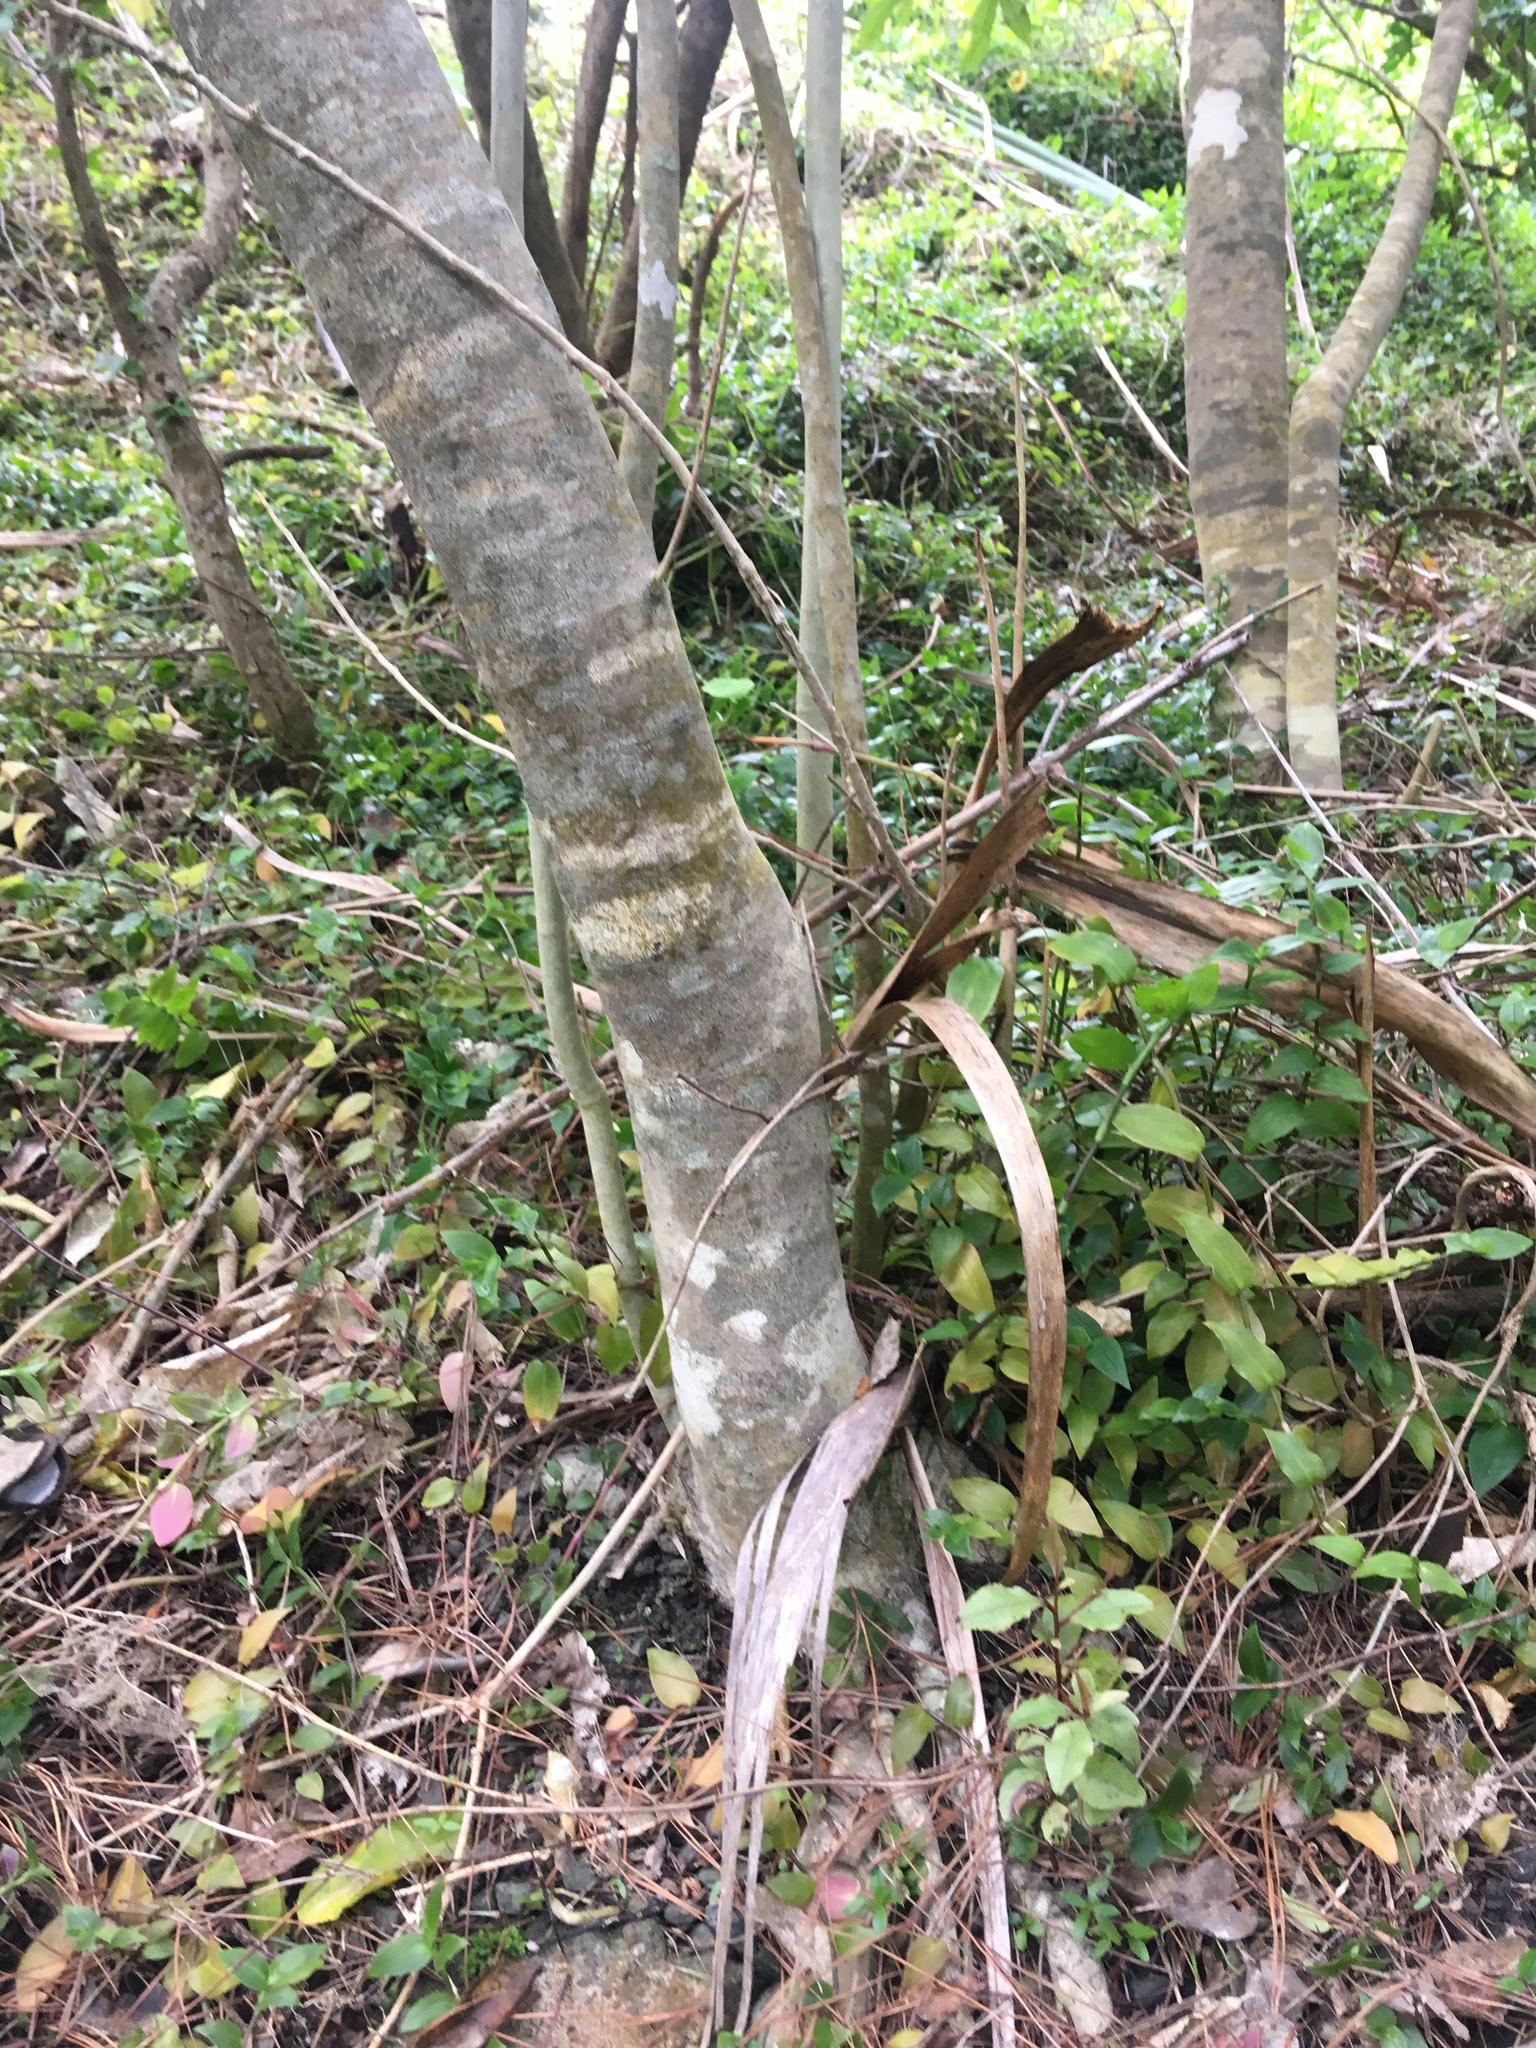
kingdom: Plantae
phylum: Tracheophyta
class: Liliopsida
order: Commelinales
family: Commelinaceae
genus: Tradescantia
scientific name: Tradescantia fluminensis
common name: Wandering-jew
